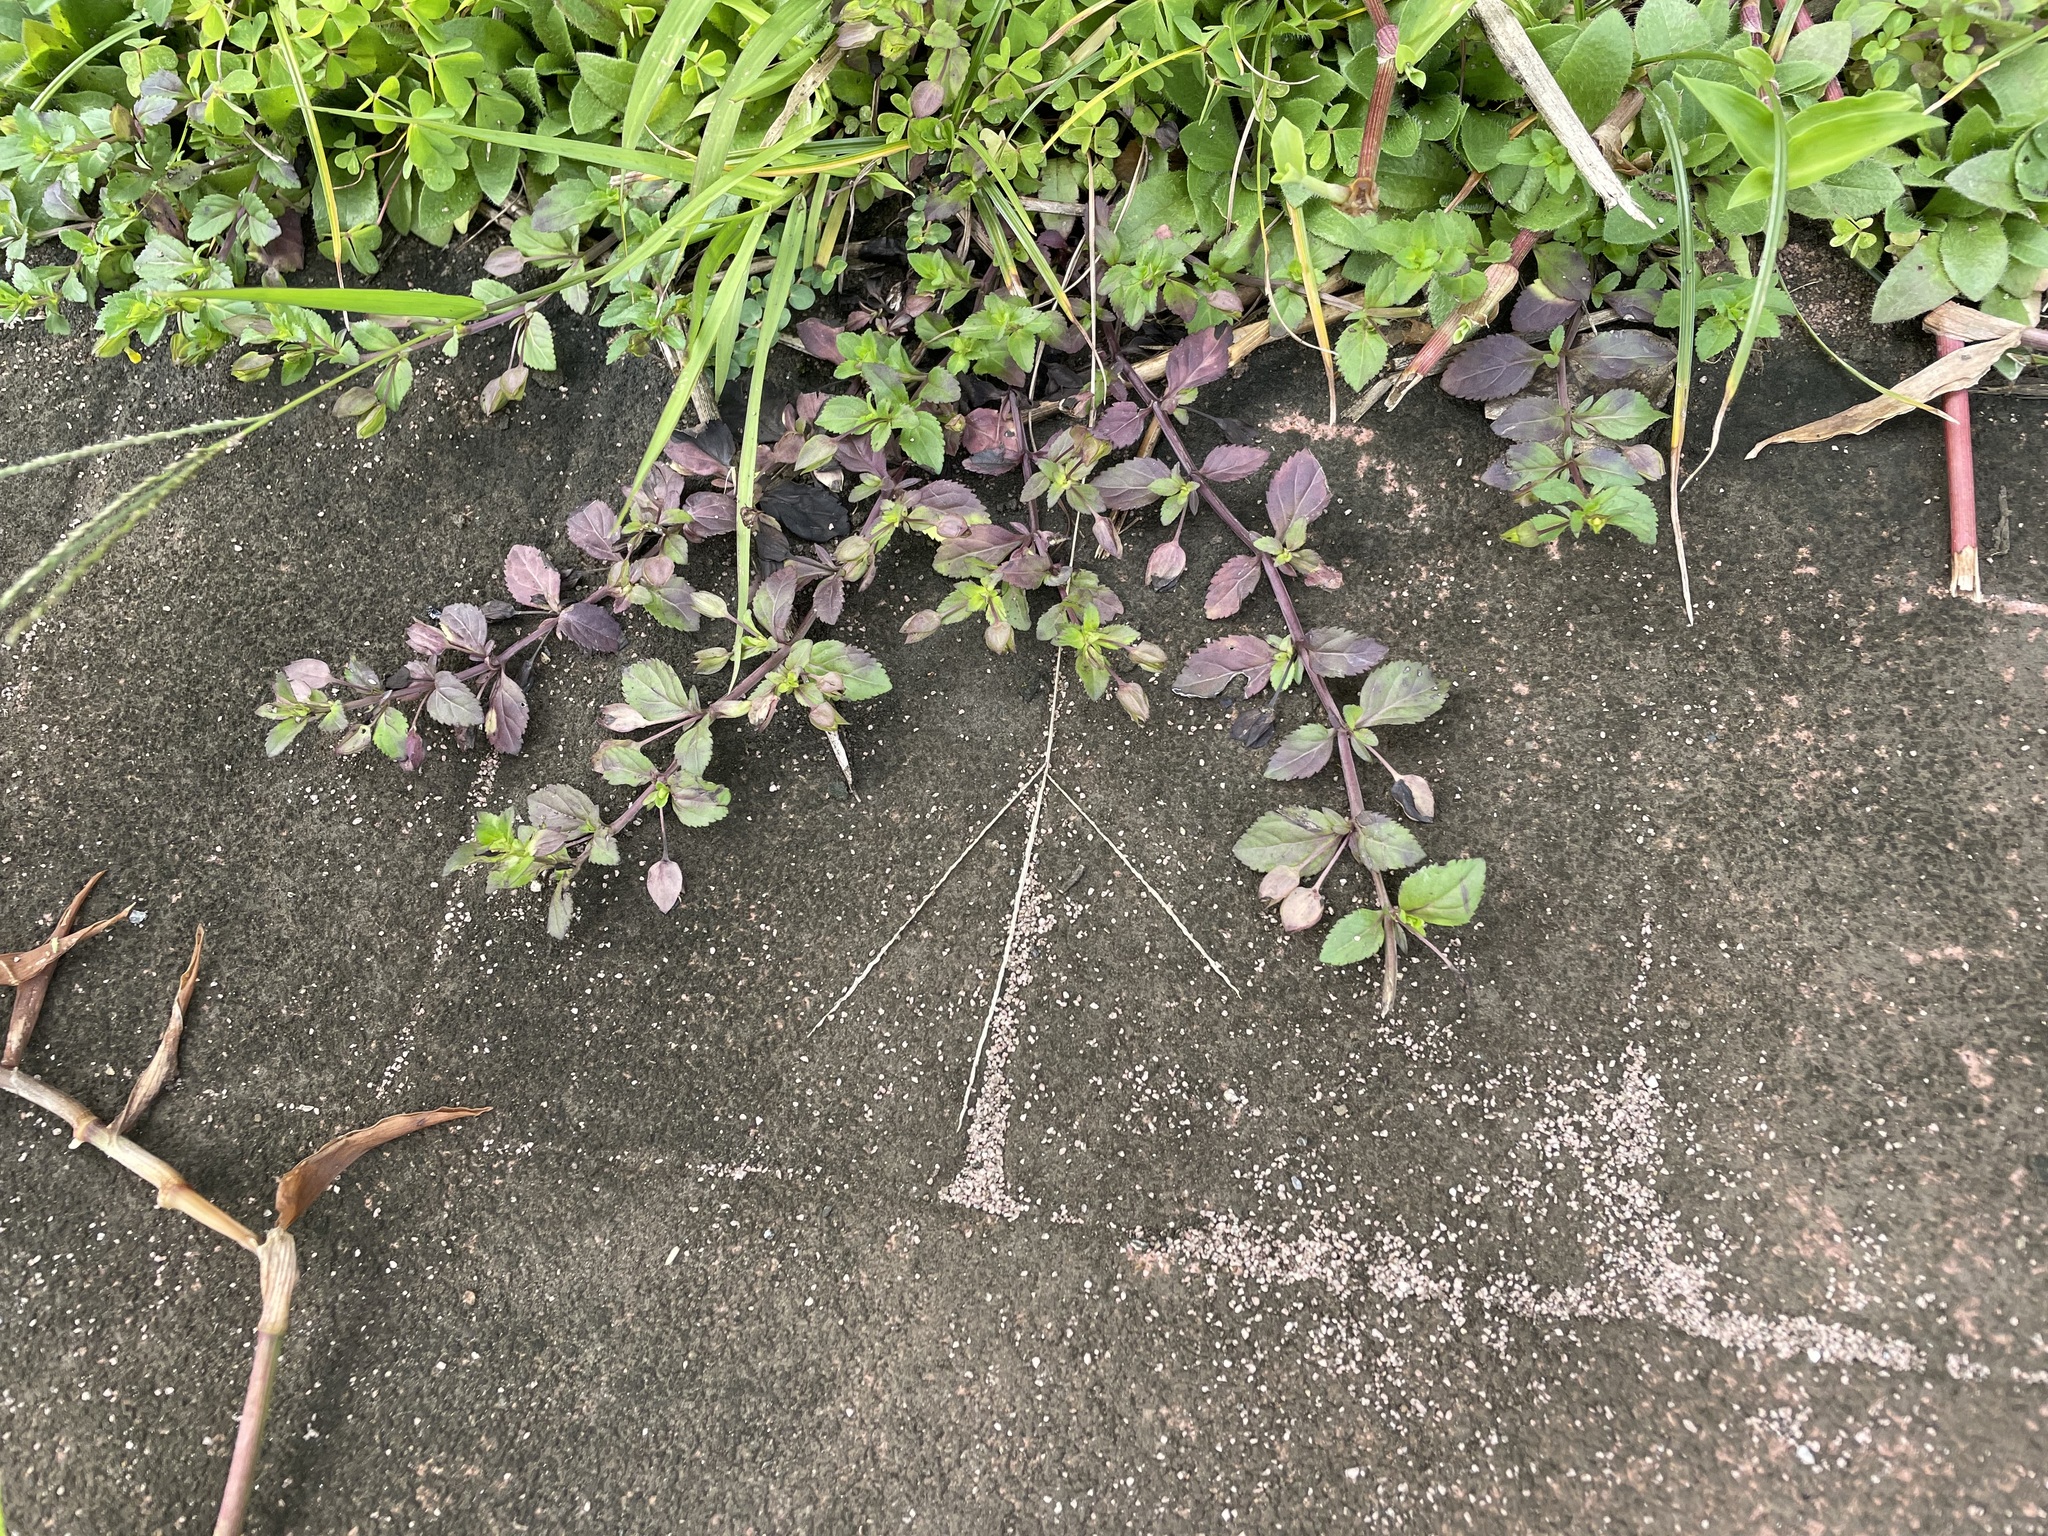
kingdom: Plantae
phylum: Tracheophyta
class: Magnoliopsida
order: Lamiales
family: Plantaginaceae
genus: Mecardonia
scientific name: Mecardonia procumbens
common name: Baby jump-up
